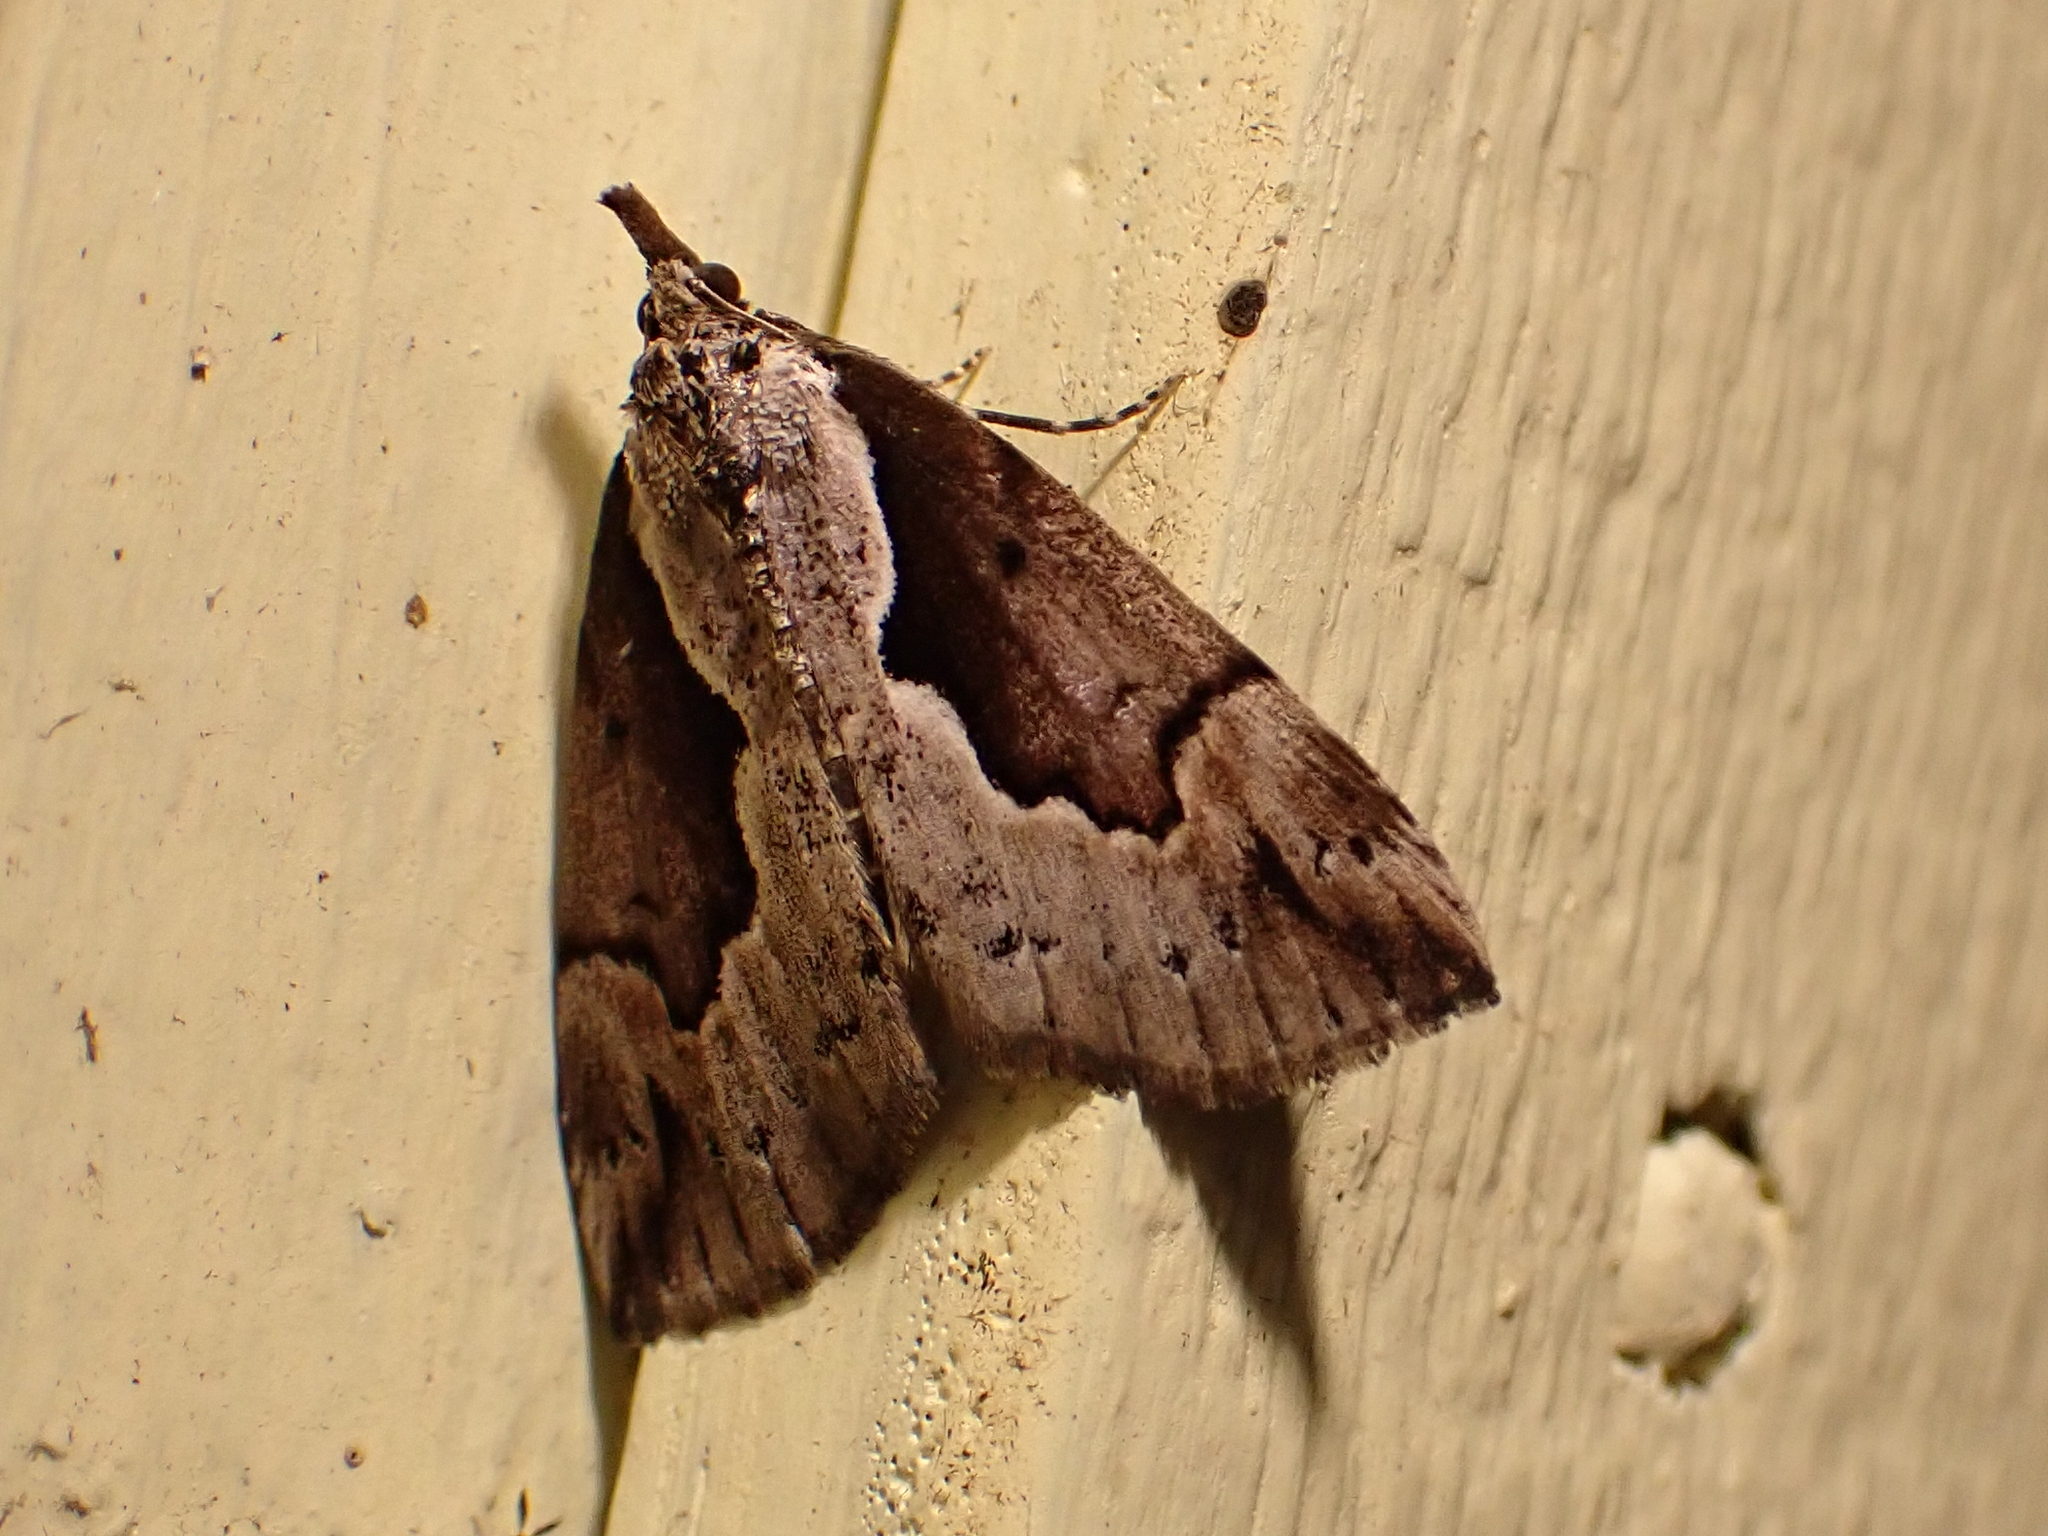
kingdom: Animalia
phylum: Arthropoda
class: Insecta
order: Lepidoptera
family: Erebidae
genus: Hypena
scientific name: Hypena baltimoralis
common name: Baltimore snout
